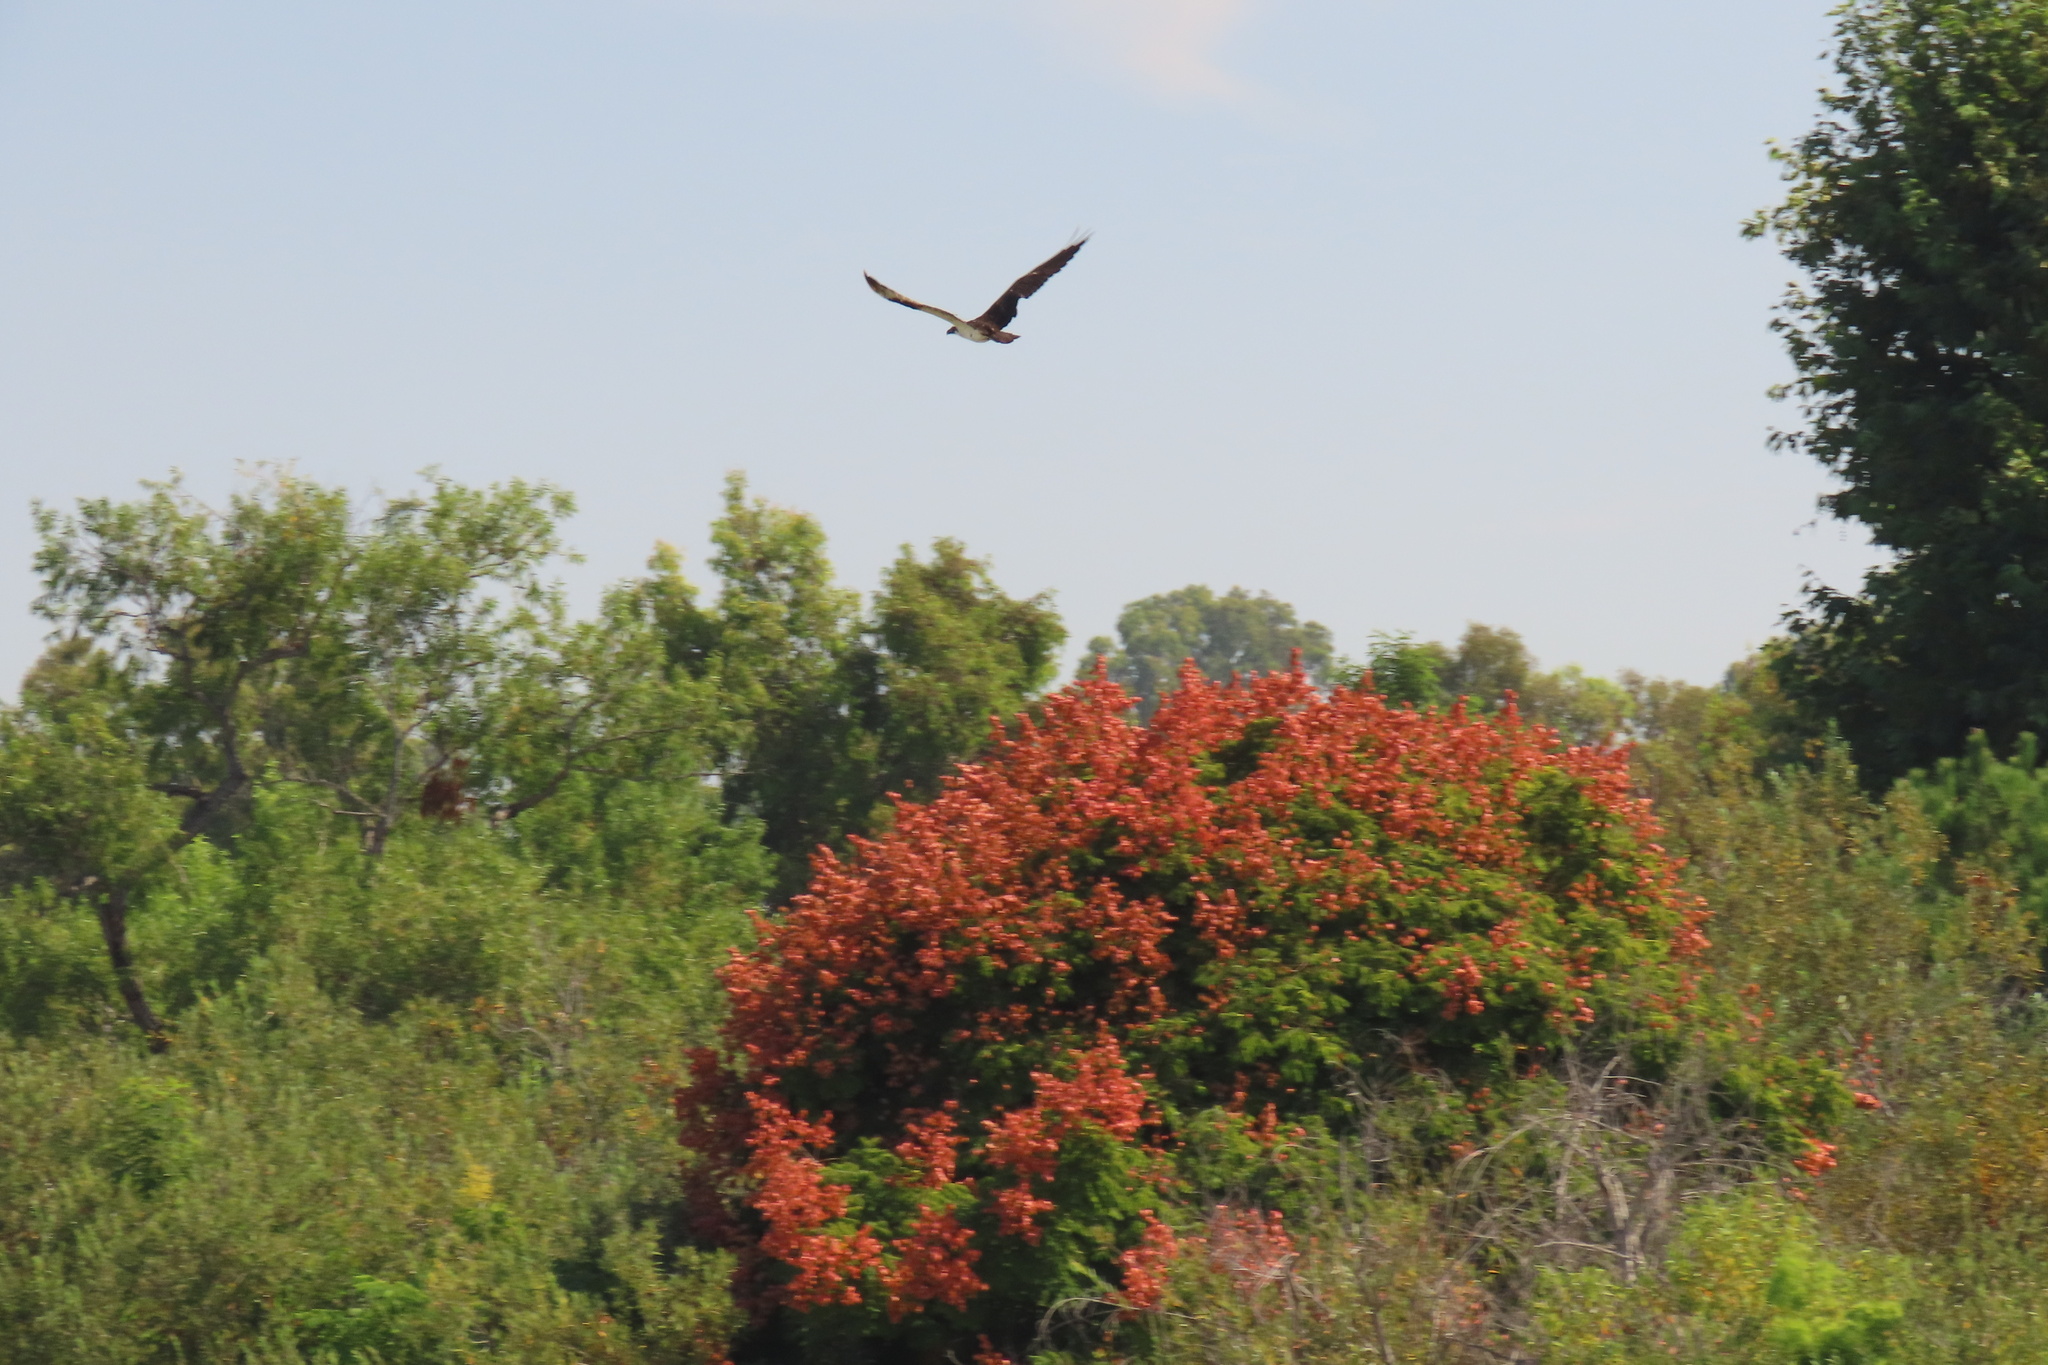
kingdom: Animalia
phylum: Chordata
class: Aves
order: Accipitriformes
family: Pandionidae
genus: Pandion
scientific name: Pandion haliaetus
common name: Osprey
